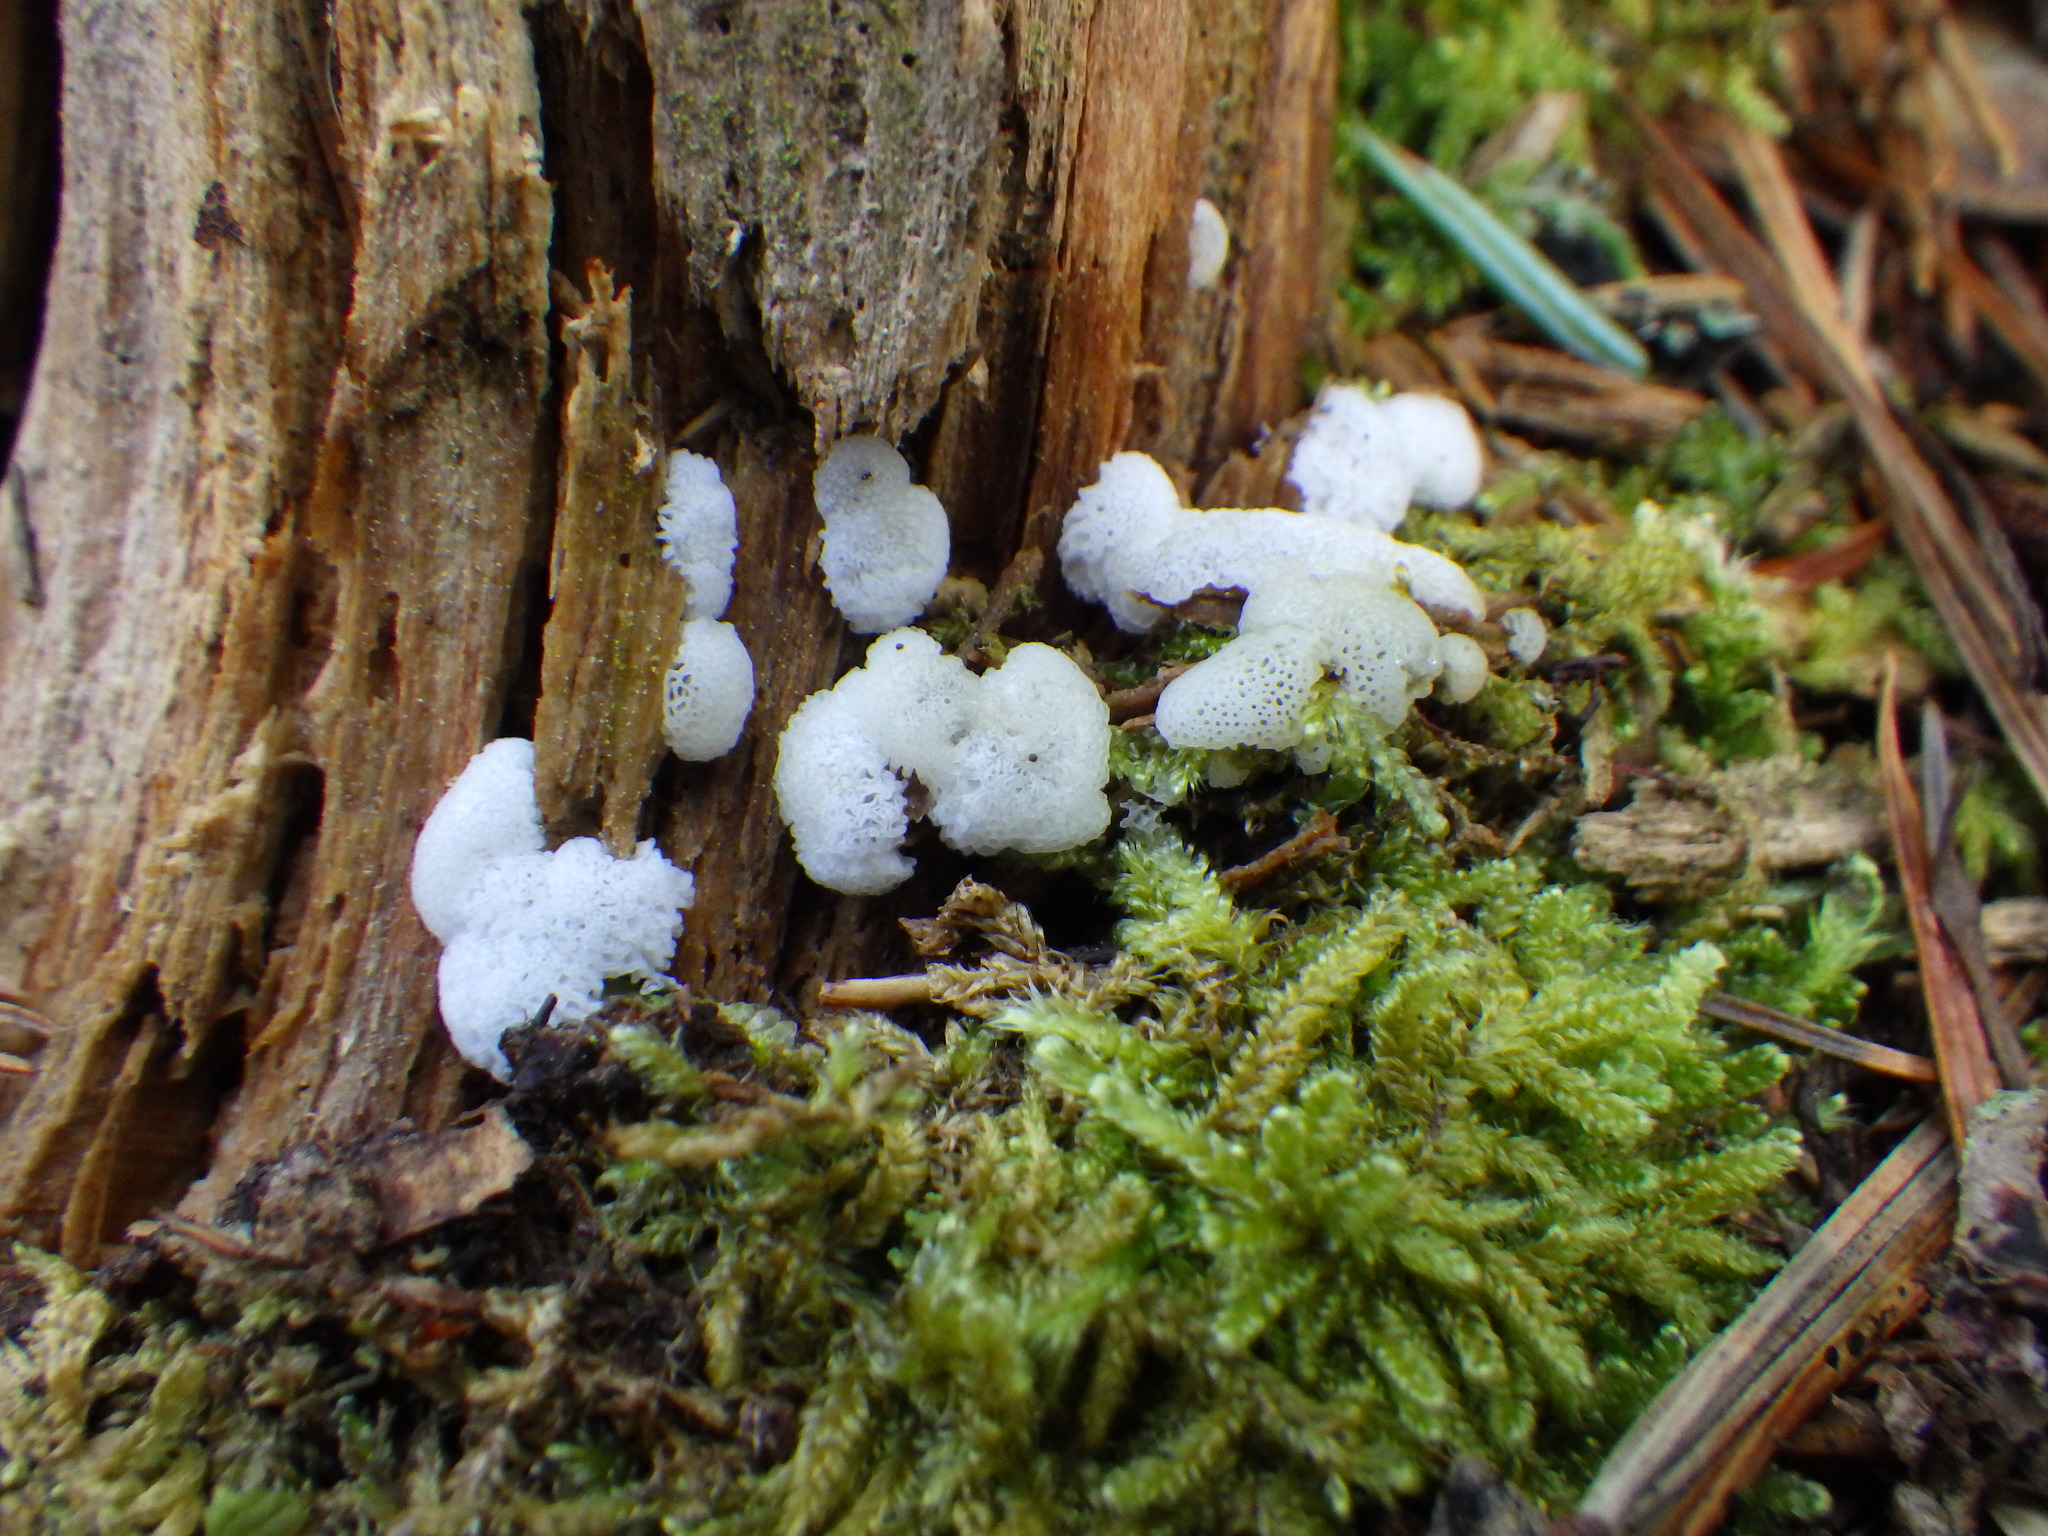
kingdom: Protozoa
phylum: Mycetozoa
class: Protosteliomycetes
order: Ceratiomyxales
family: Ceratiomyxaceae
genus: Ceratiomyxa
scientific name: Ceratiomyxa fruticulosa
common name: Honeycomb coral slime mold
